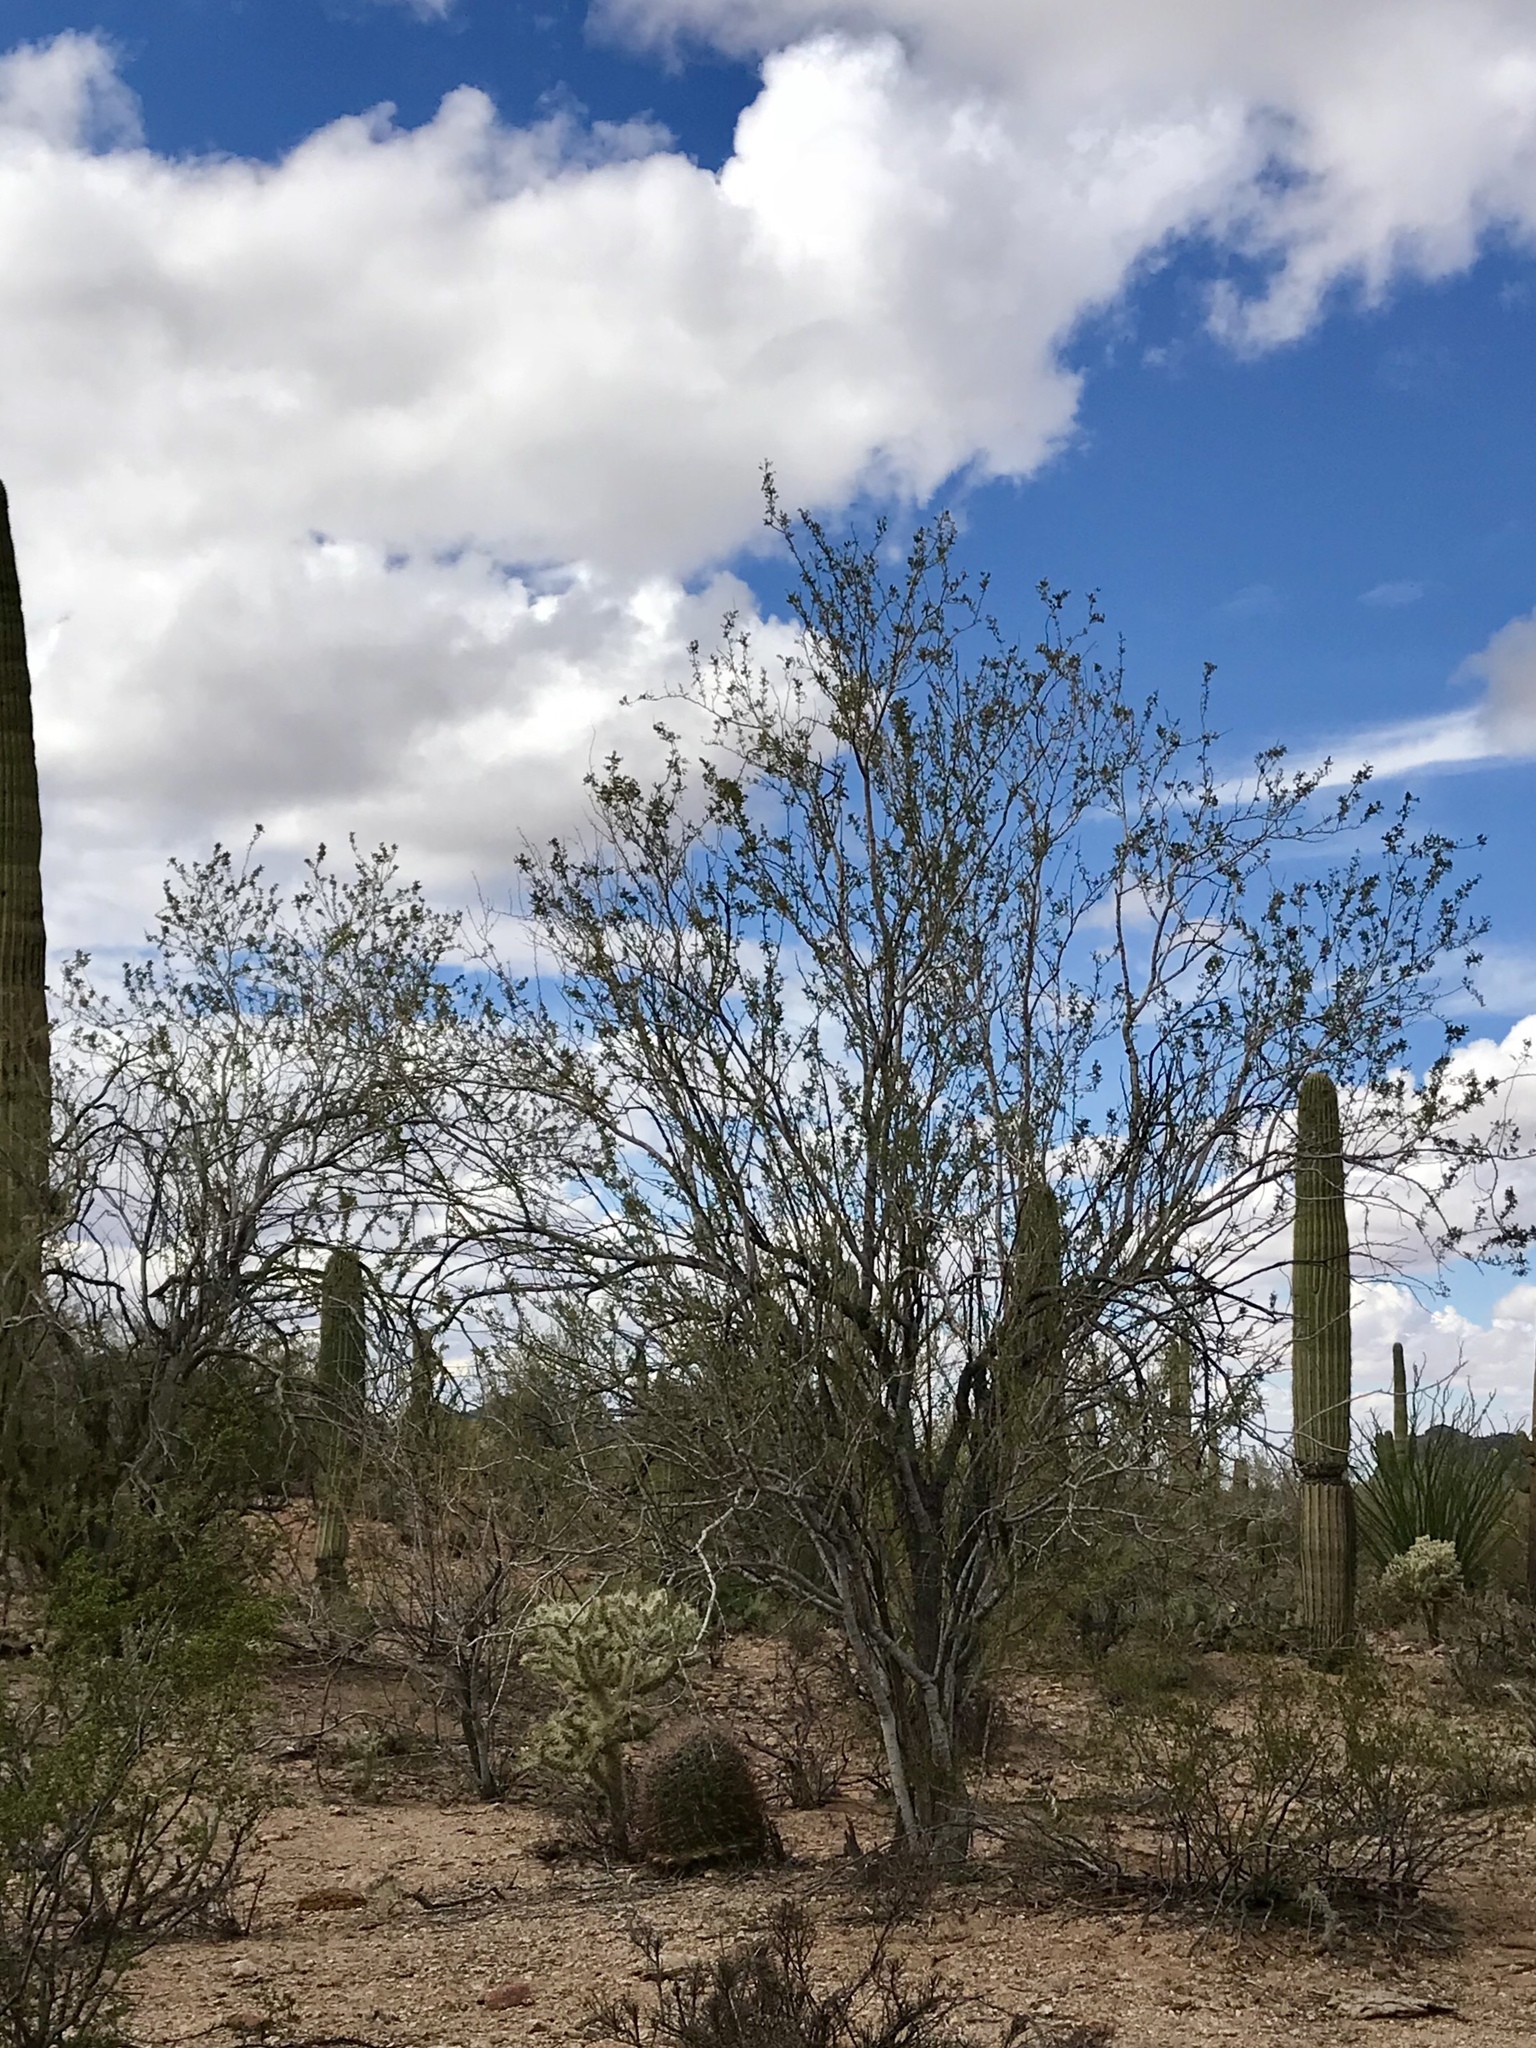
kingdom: Plantae
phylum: Tracheophyta
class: Magnoliopsida
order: Fabales
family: Fabaceae
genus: Olneya
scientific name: Olneya tesota
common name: Desert ironwood
